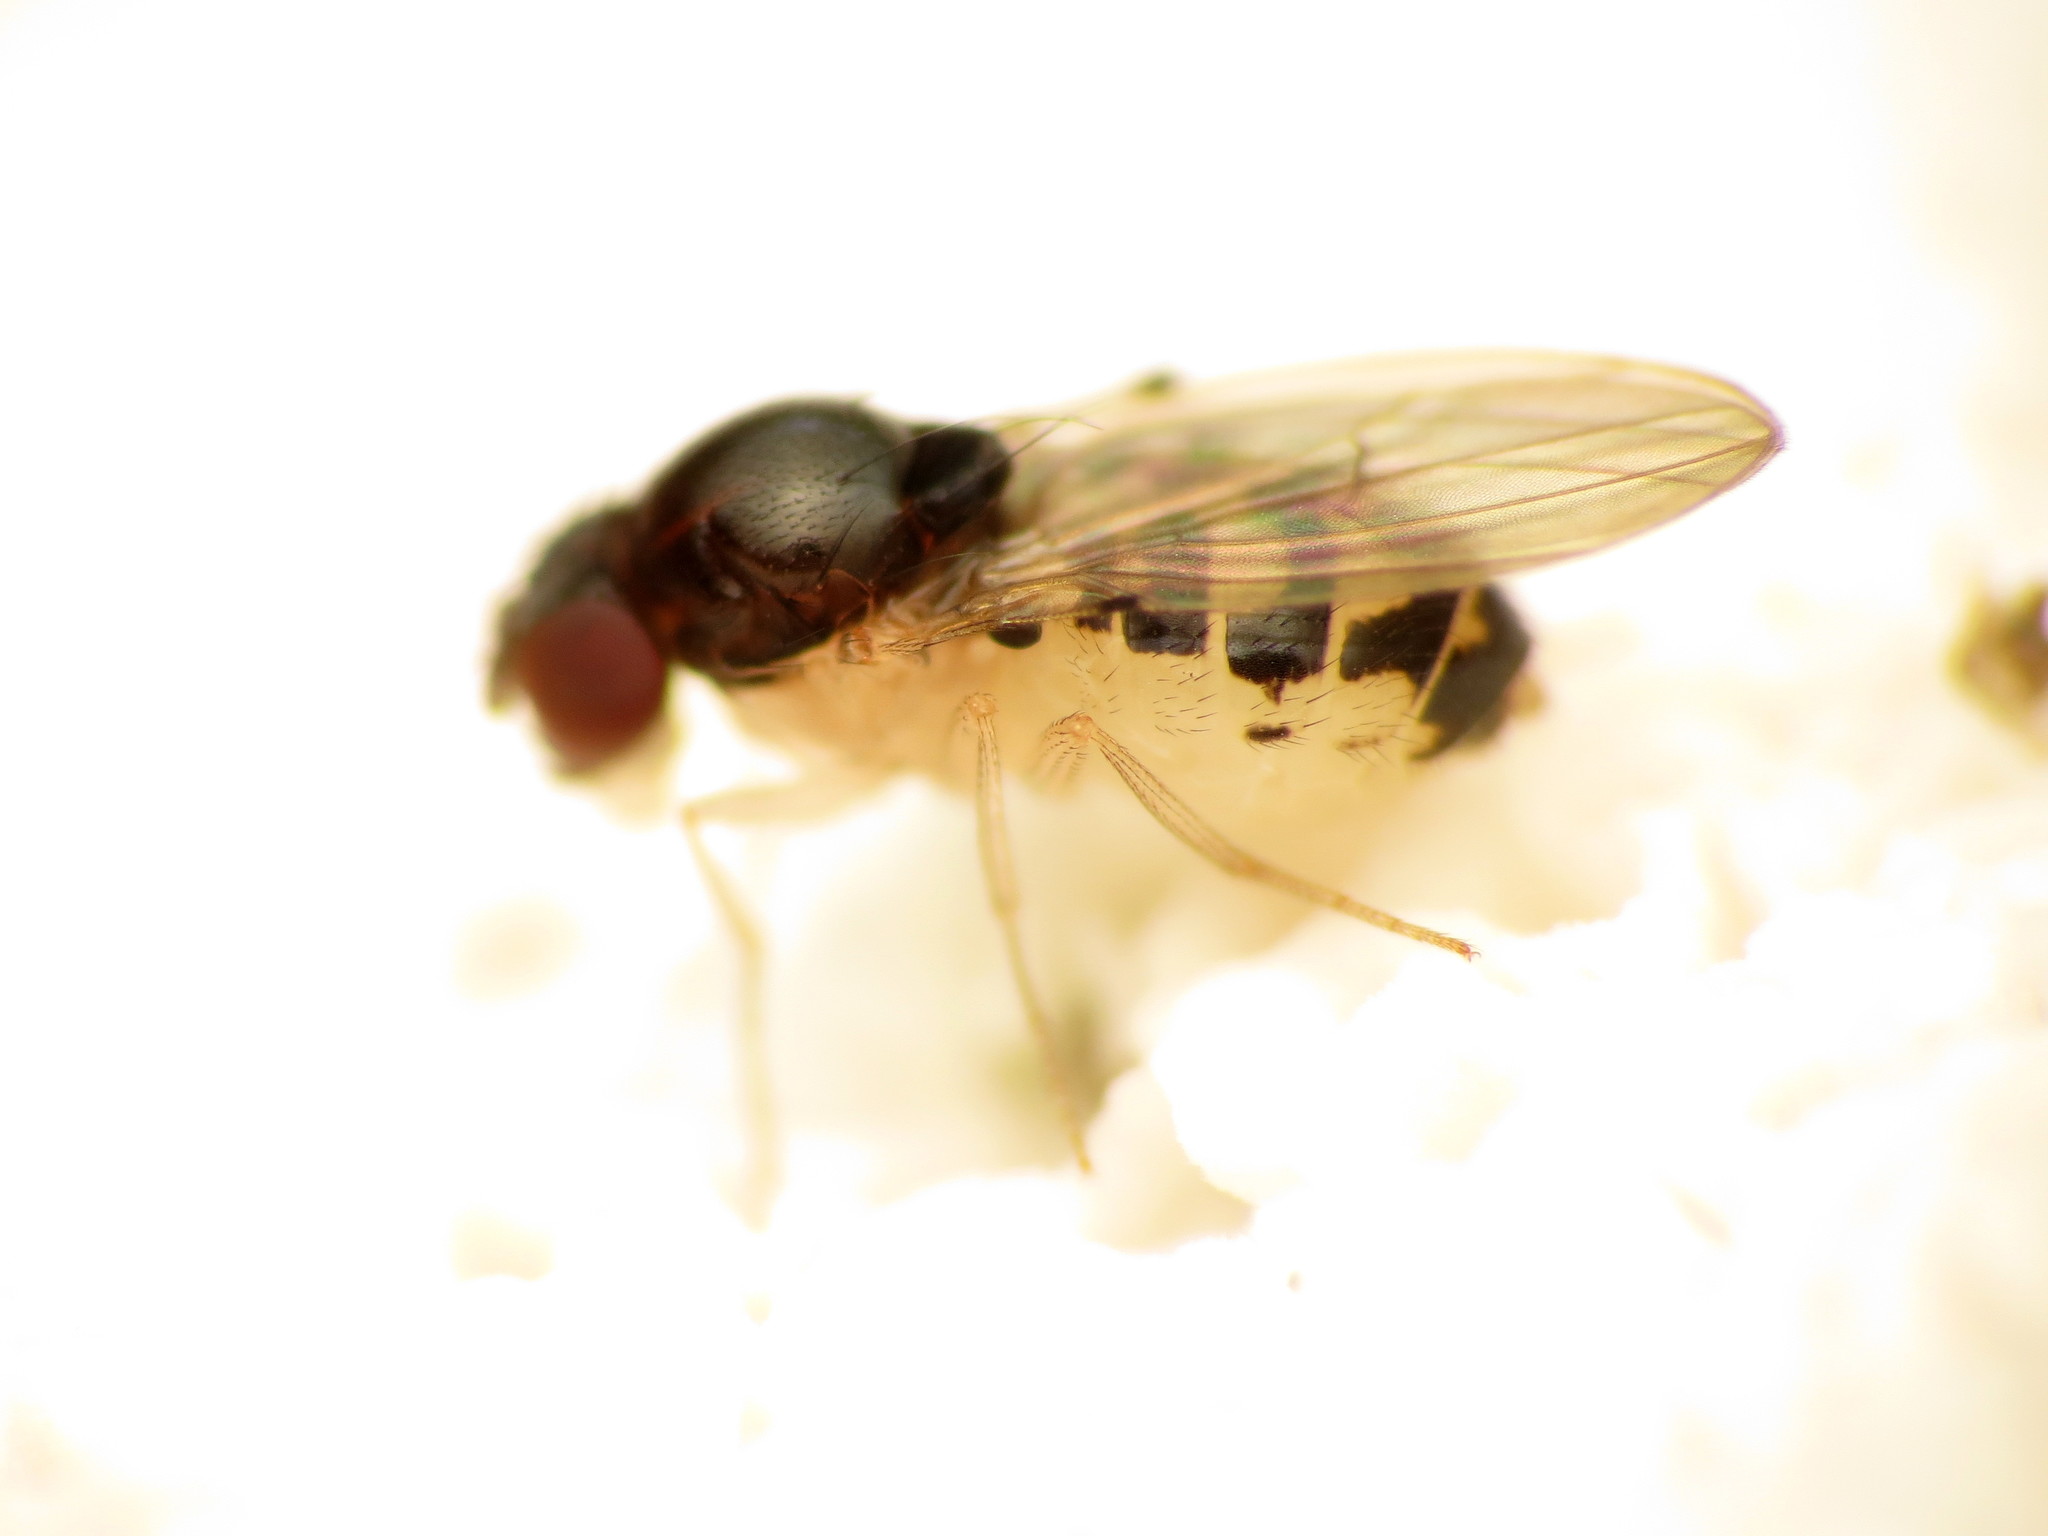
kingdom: Animalia
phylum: Arthropoda
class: Insecta
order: Diptera
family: Drosophilidae
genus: Mycodrosophila
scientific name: Mycodrosophila claytonae
